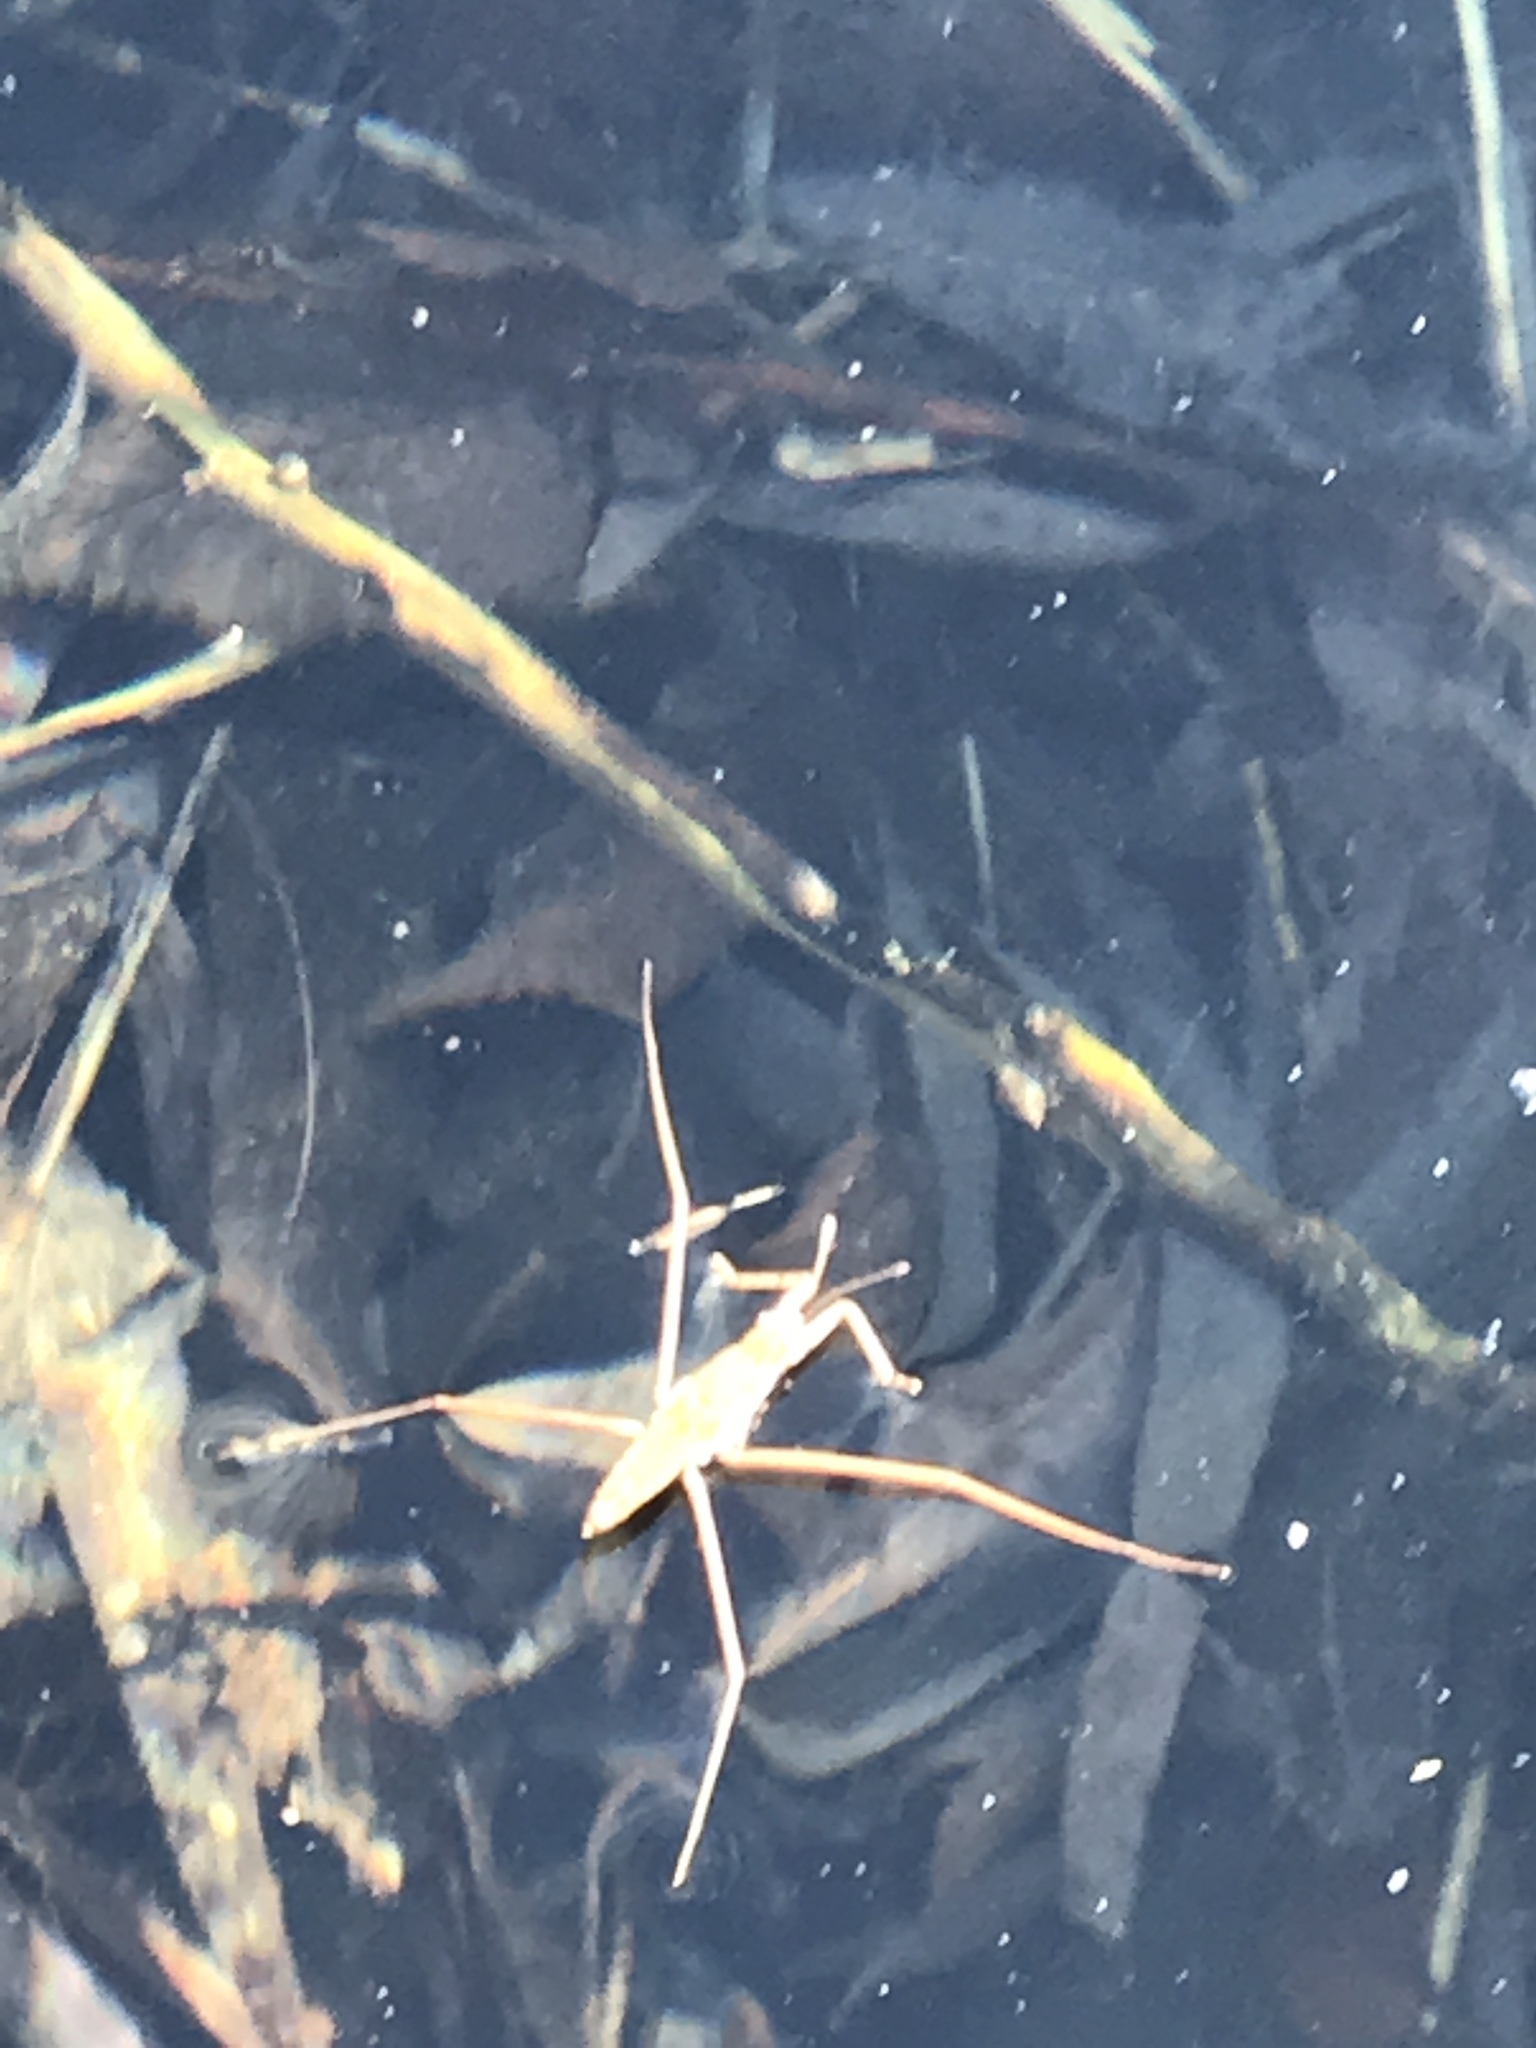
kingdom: Animalia
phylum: Arthropoda
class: Insecta
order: Hemiptera
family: Gerridae
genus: Aquarius
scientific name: Aquarius remigis
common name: Common water strider
